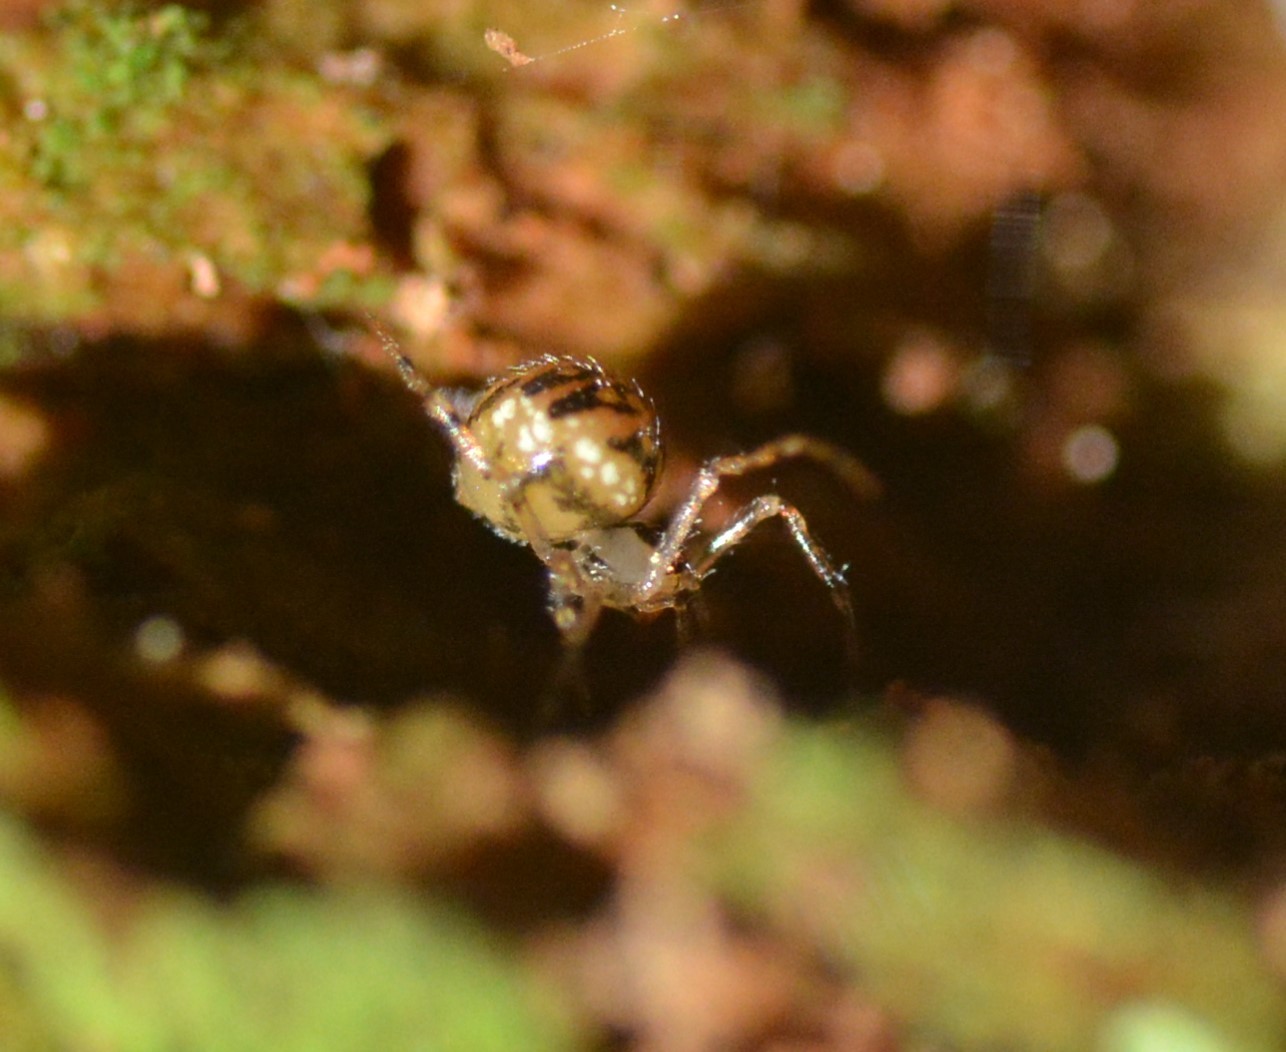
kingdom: Animalia
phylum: Arthropoda
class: Arachnida
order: Araneae
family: Theridiidae
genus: Rugathodes
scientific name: Rugathodes sexpunctatus
